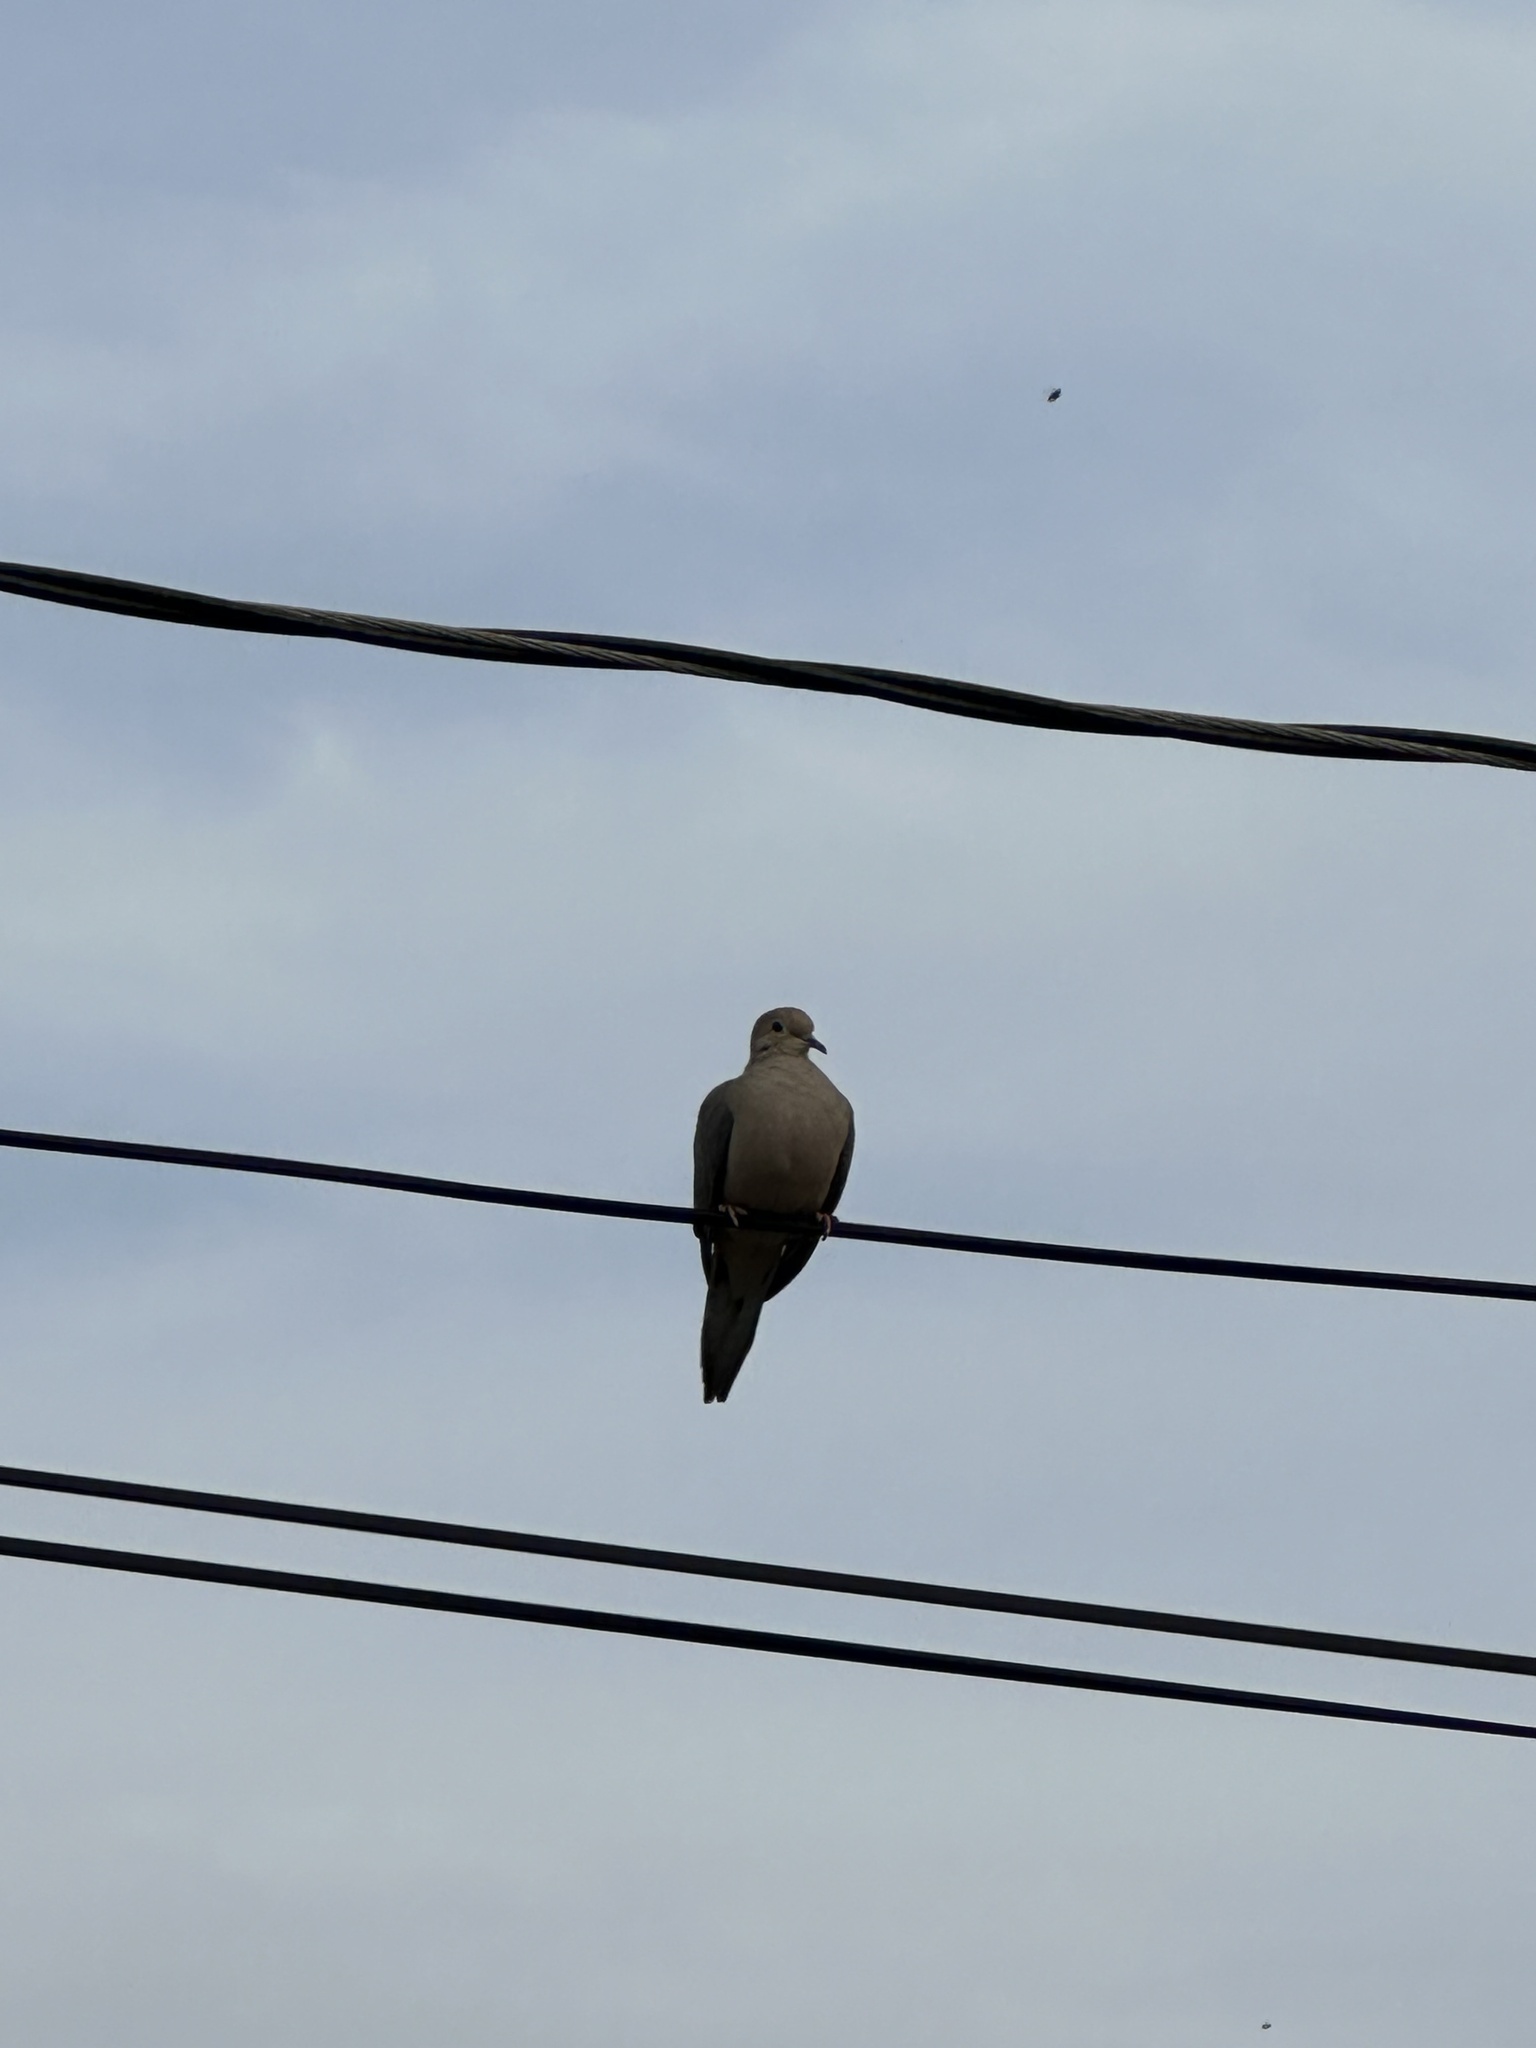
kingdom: Animalia
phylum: Chordata
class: Aves
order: Columbiformes
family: Columbidae
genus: Zenaida
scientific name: Zenaida macroura
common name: Mourning dove
